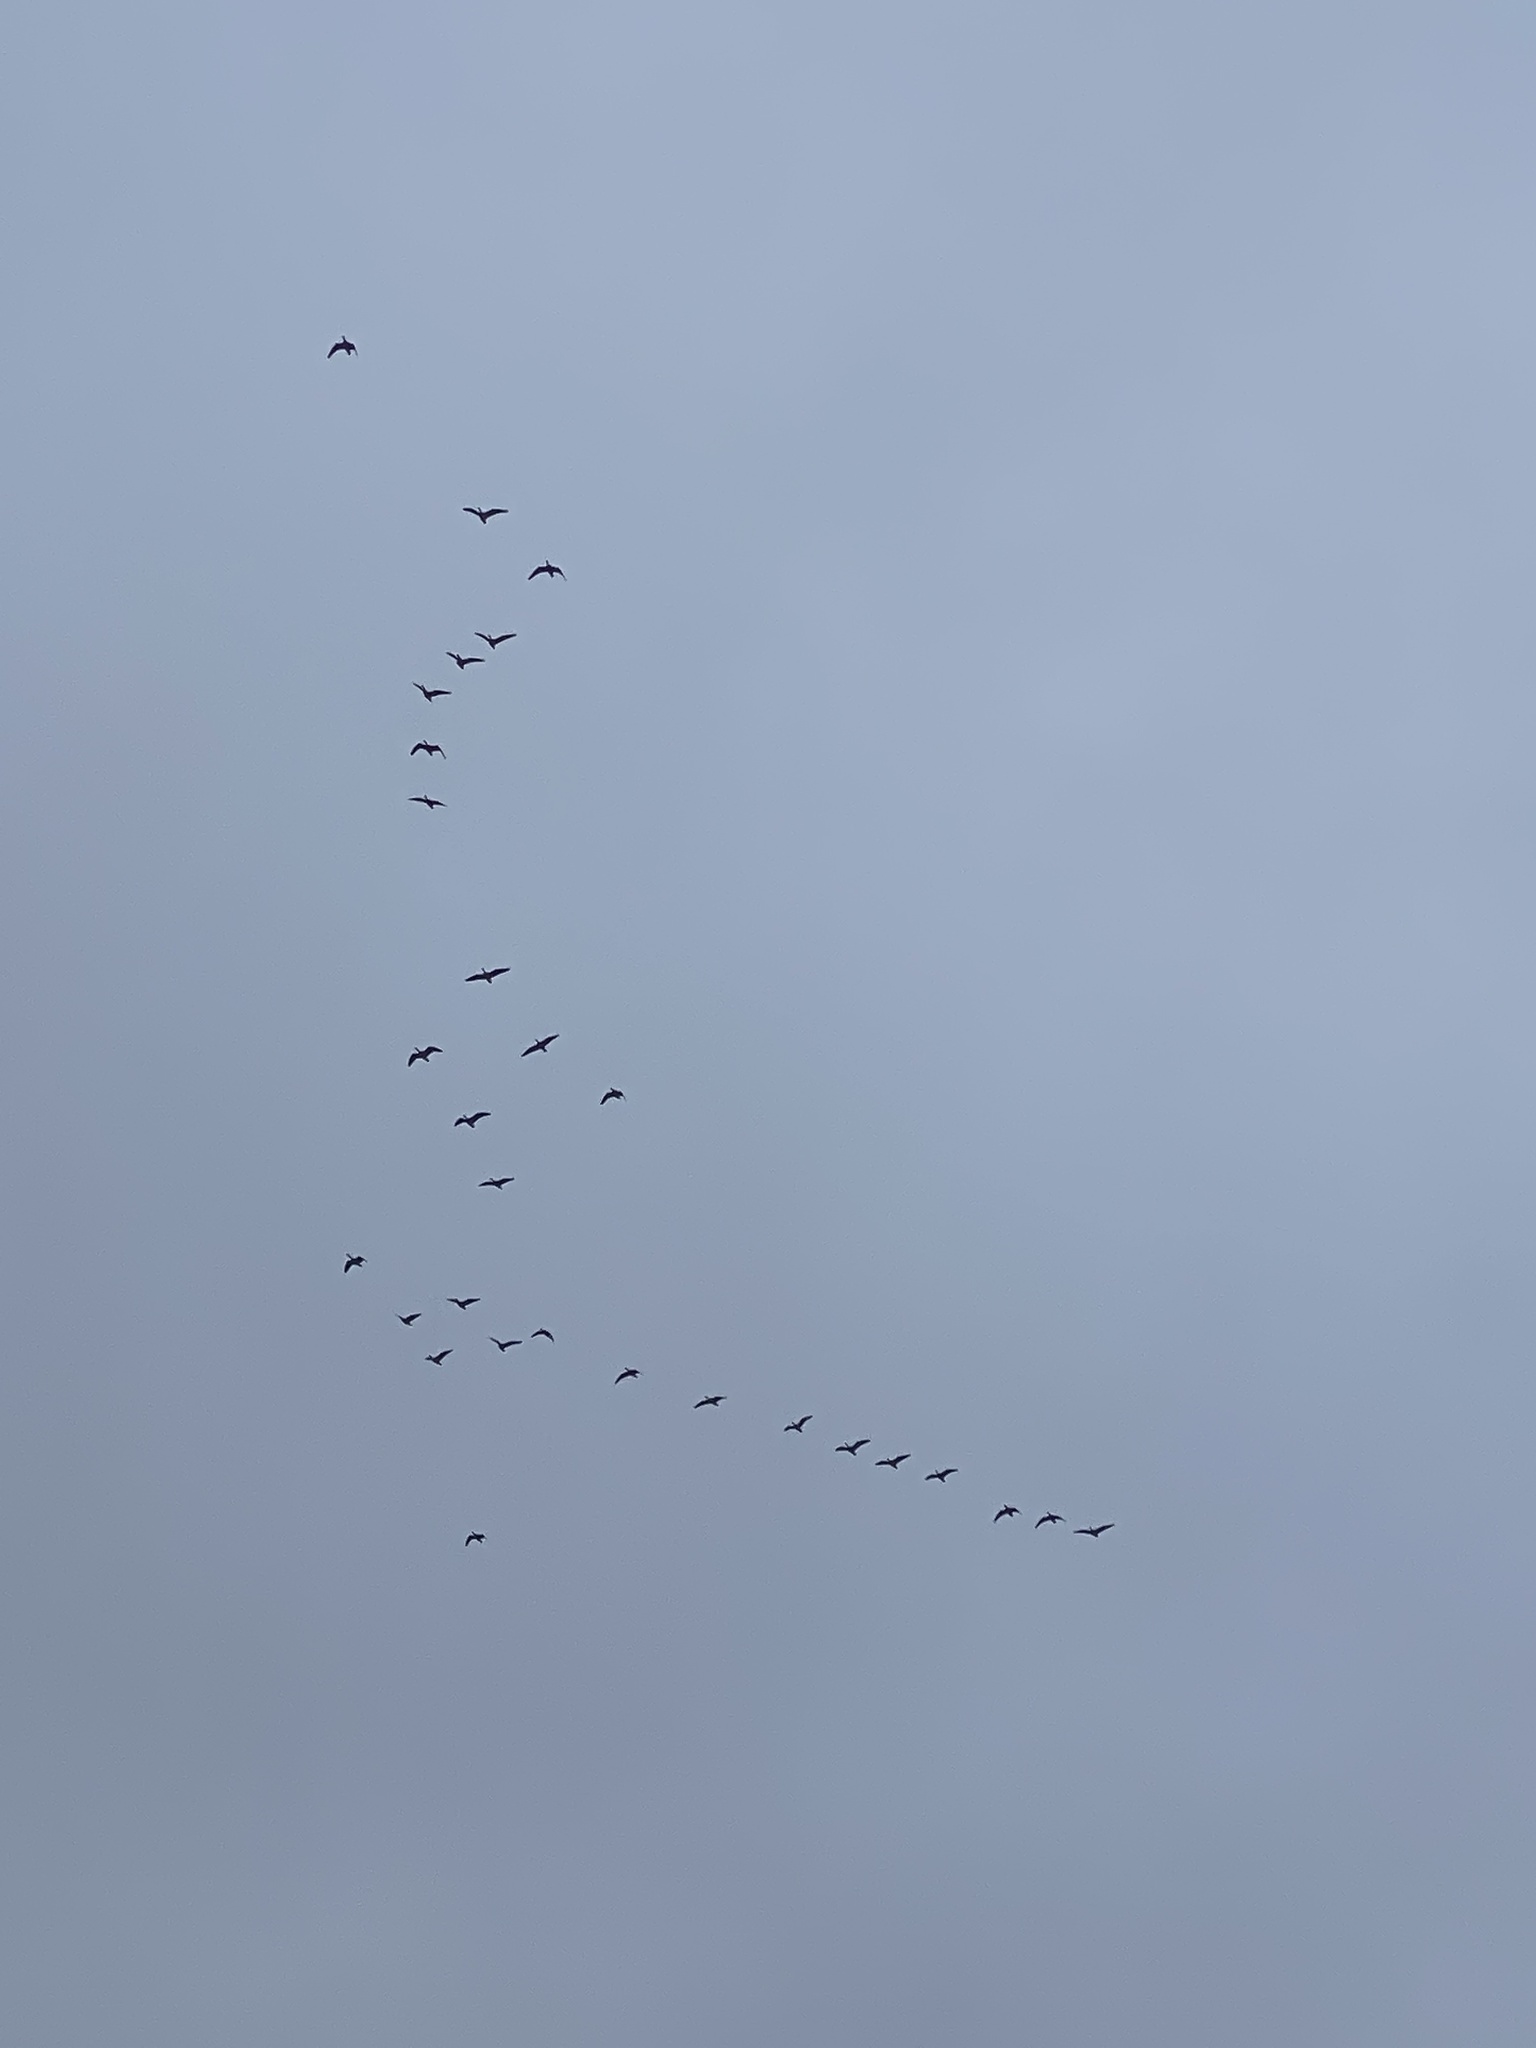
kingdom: Animalia
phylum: Chordata
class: Aves
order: Anseriformes
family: Anatidae
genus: Branta
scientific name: Branta hutchinsii
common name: Cackling goose
